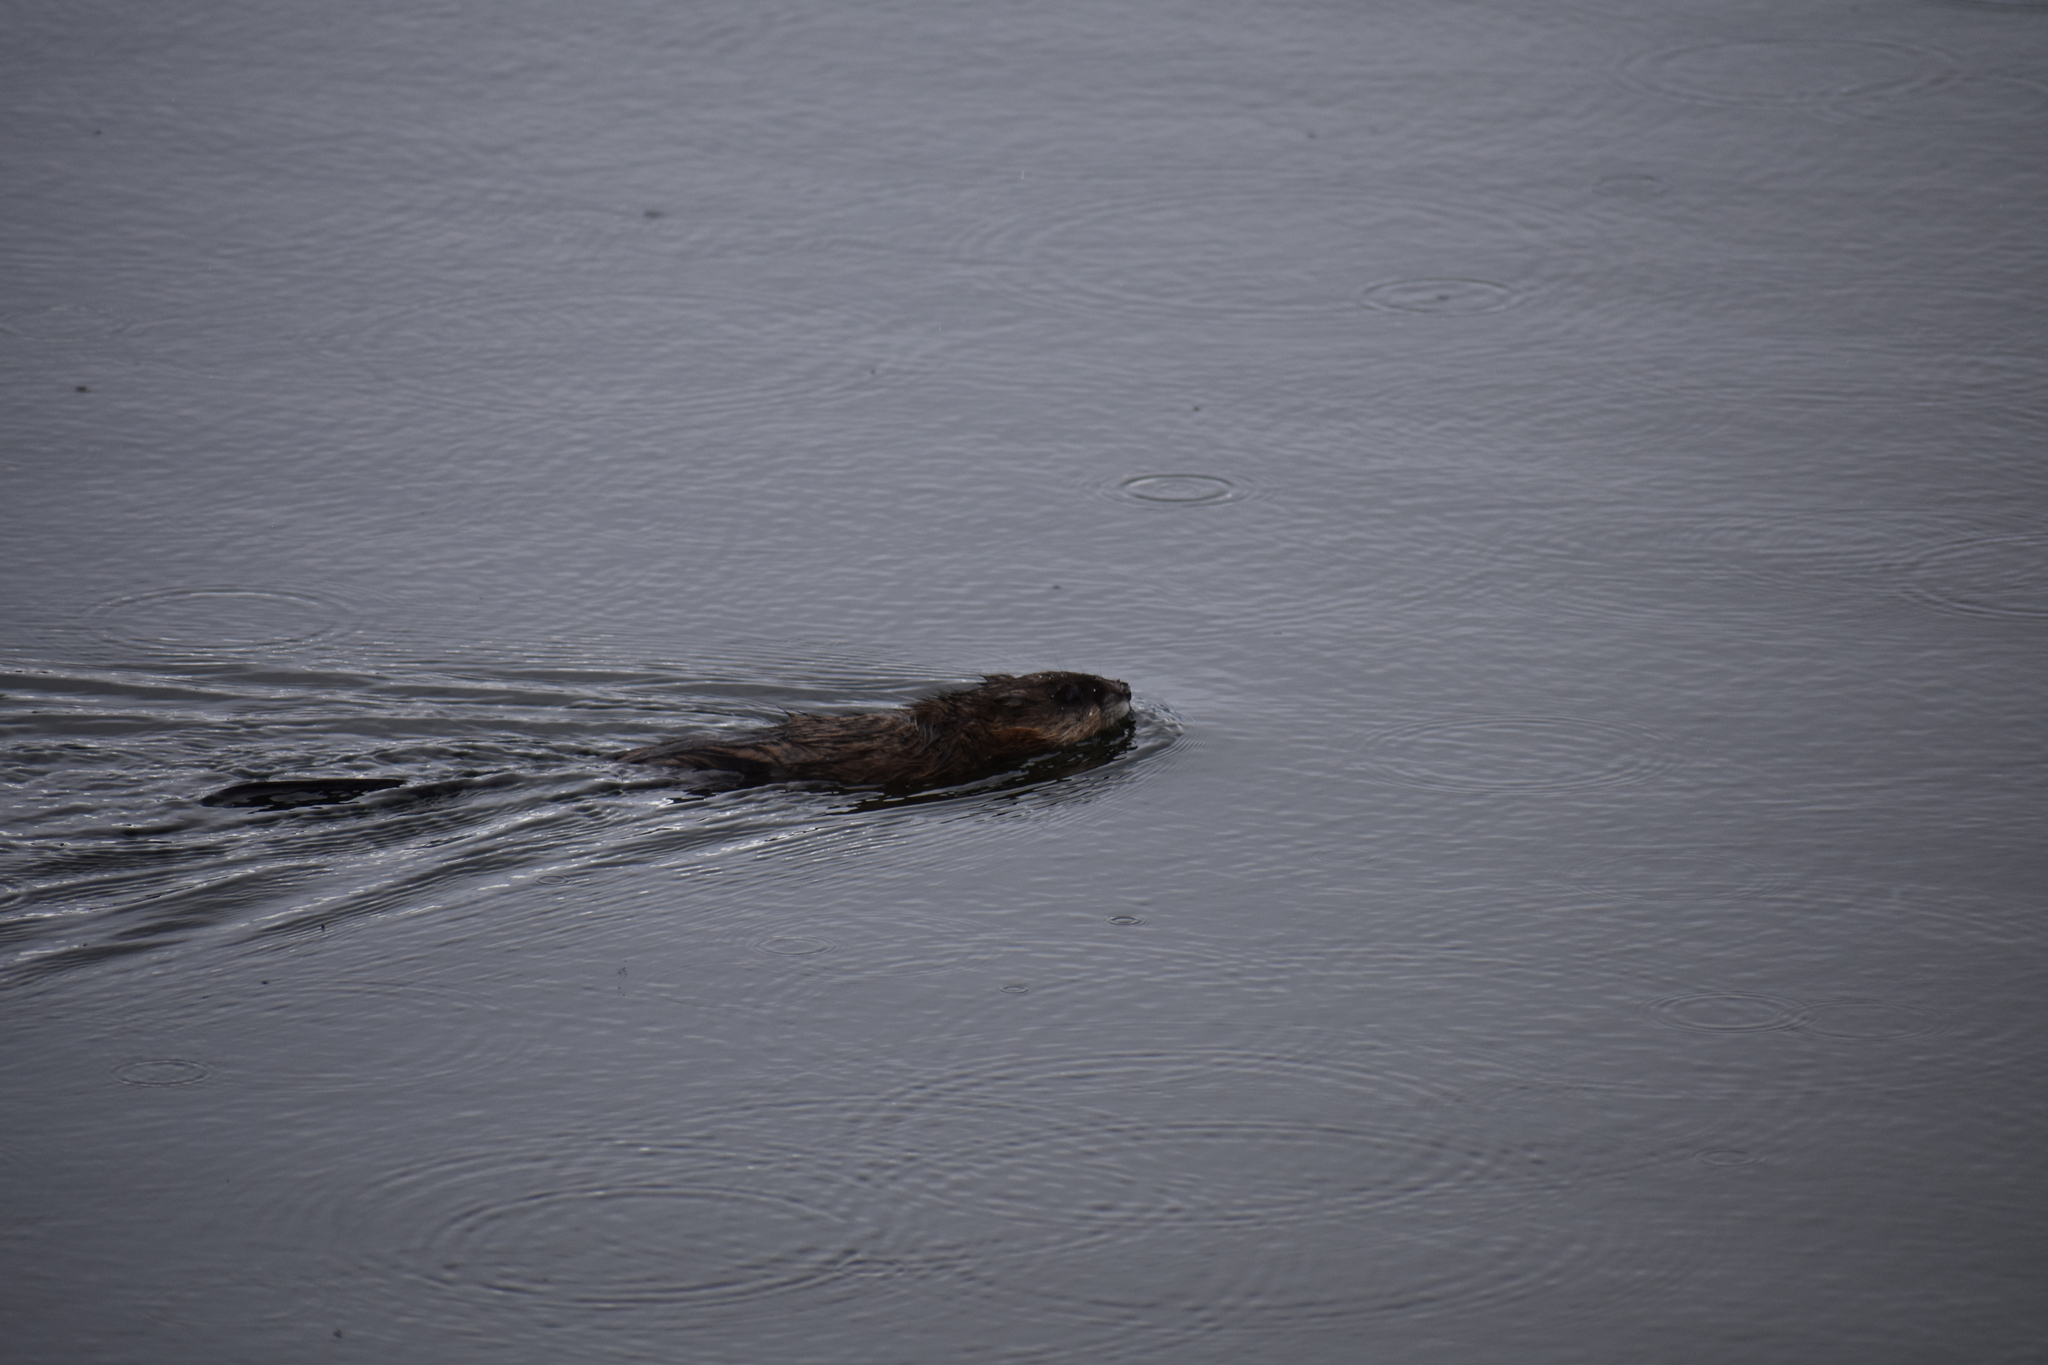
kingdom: Animalia
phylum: Chordata
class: Mammalia
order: Rodentia
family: Cricetidae
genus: Ondatra
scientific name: Ondatra zibethicus
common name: Muskrat
